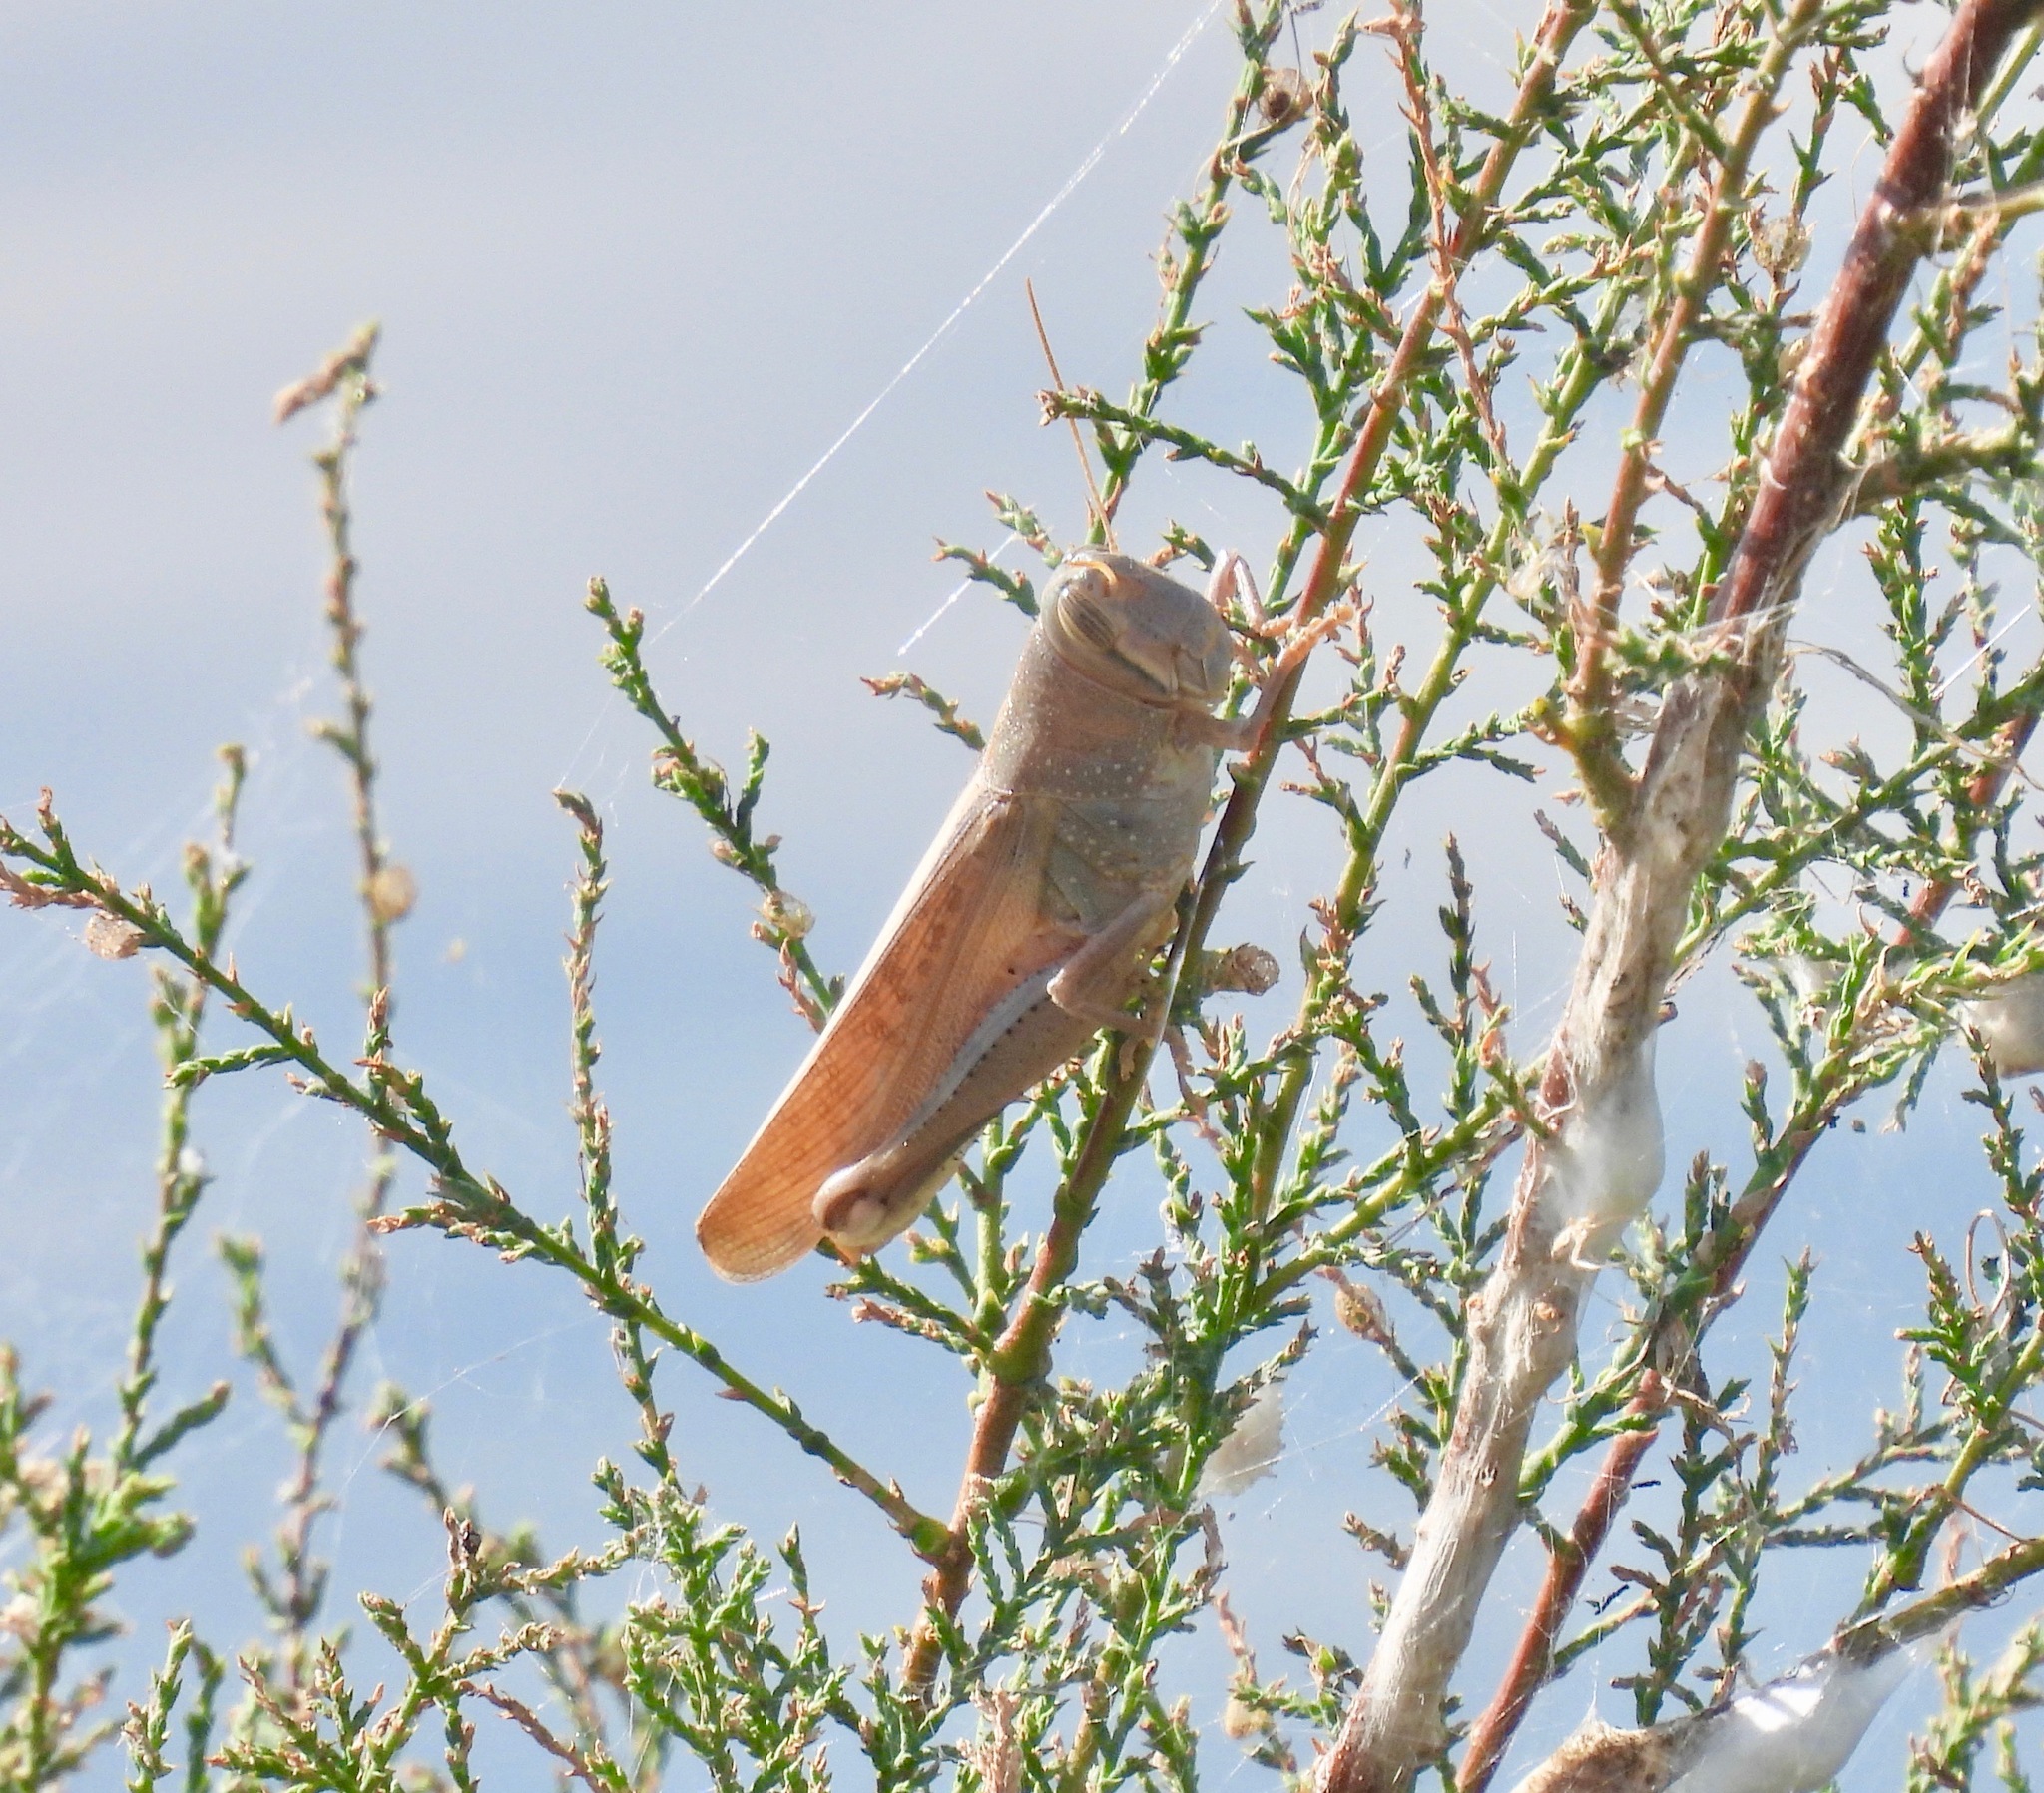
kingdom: Animalia
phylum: Arthropoda
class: Insecta
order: Orthoptera
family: Acrididae
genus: Schistocerca
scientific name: Schistocerca lineata
